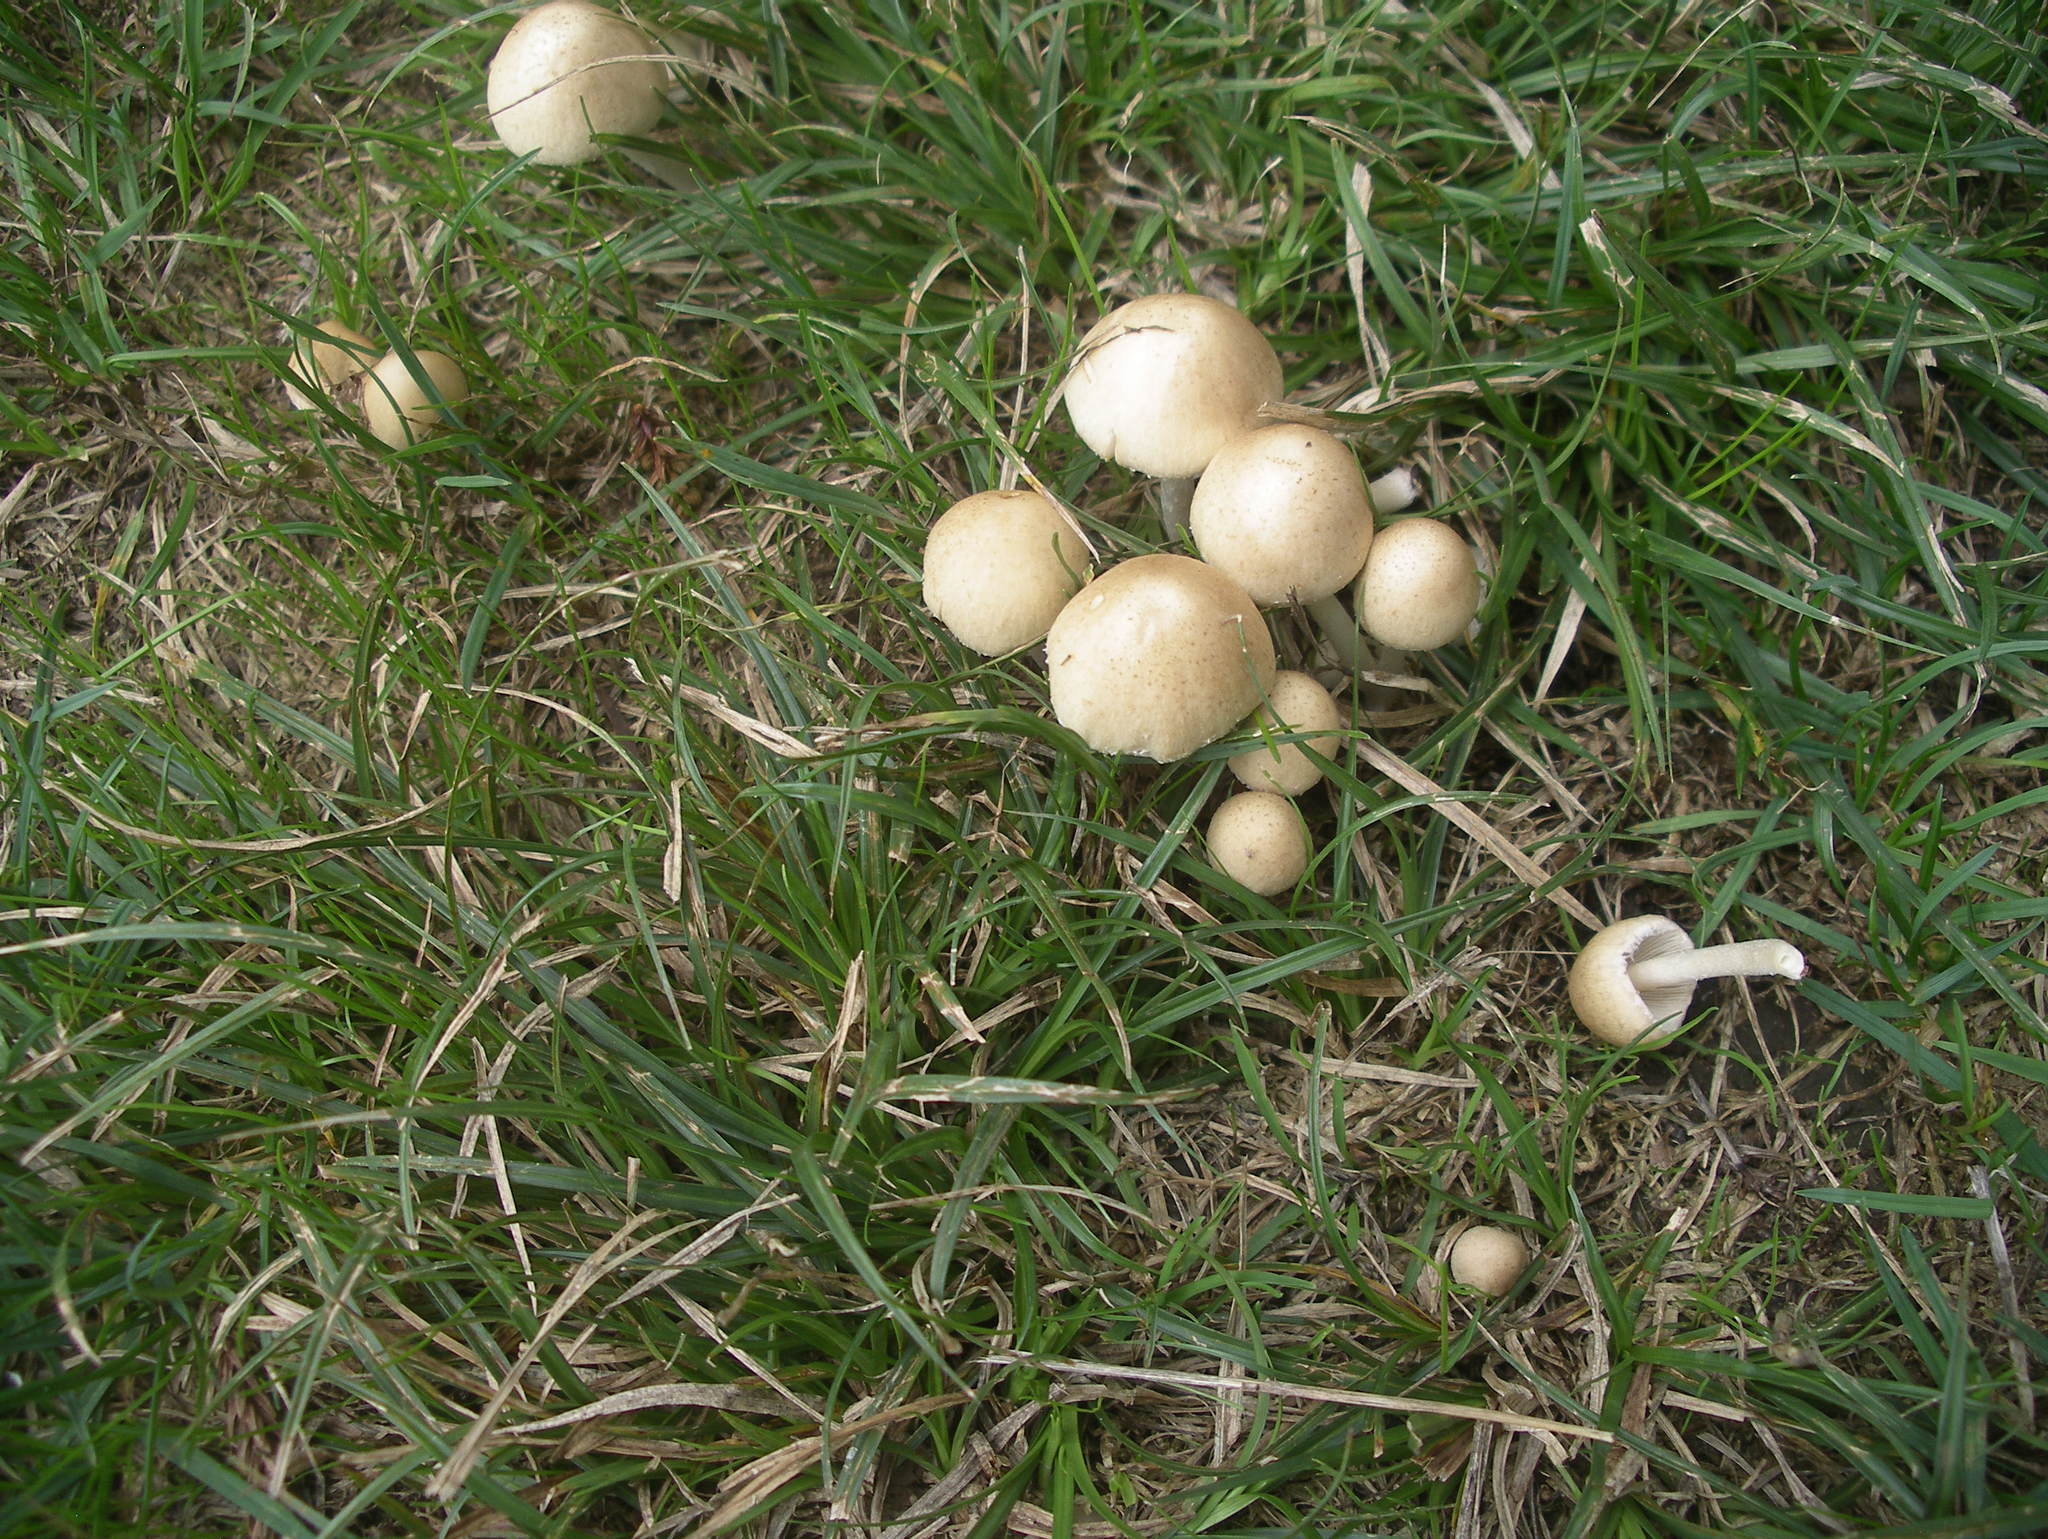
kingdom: Fungi
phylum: Basidiomycota
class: Agaricomycetes
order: Agaricales
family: Psathyrellaceae
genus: Candolleomyces
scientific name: Candolleomyces candolleanus
